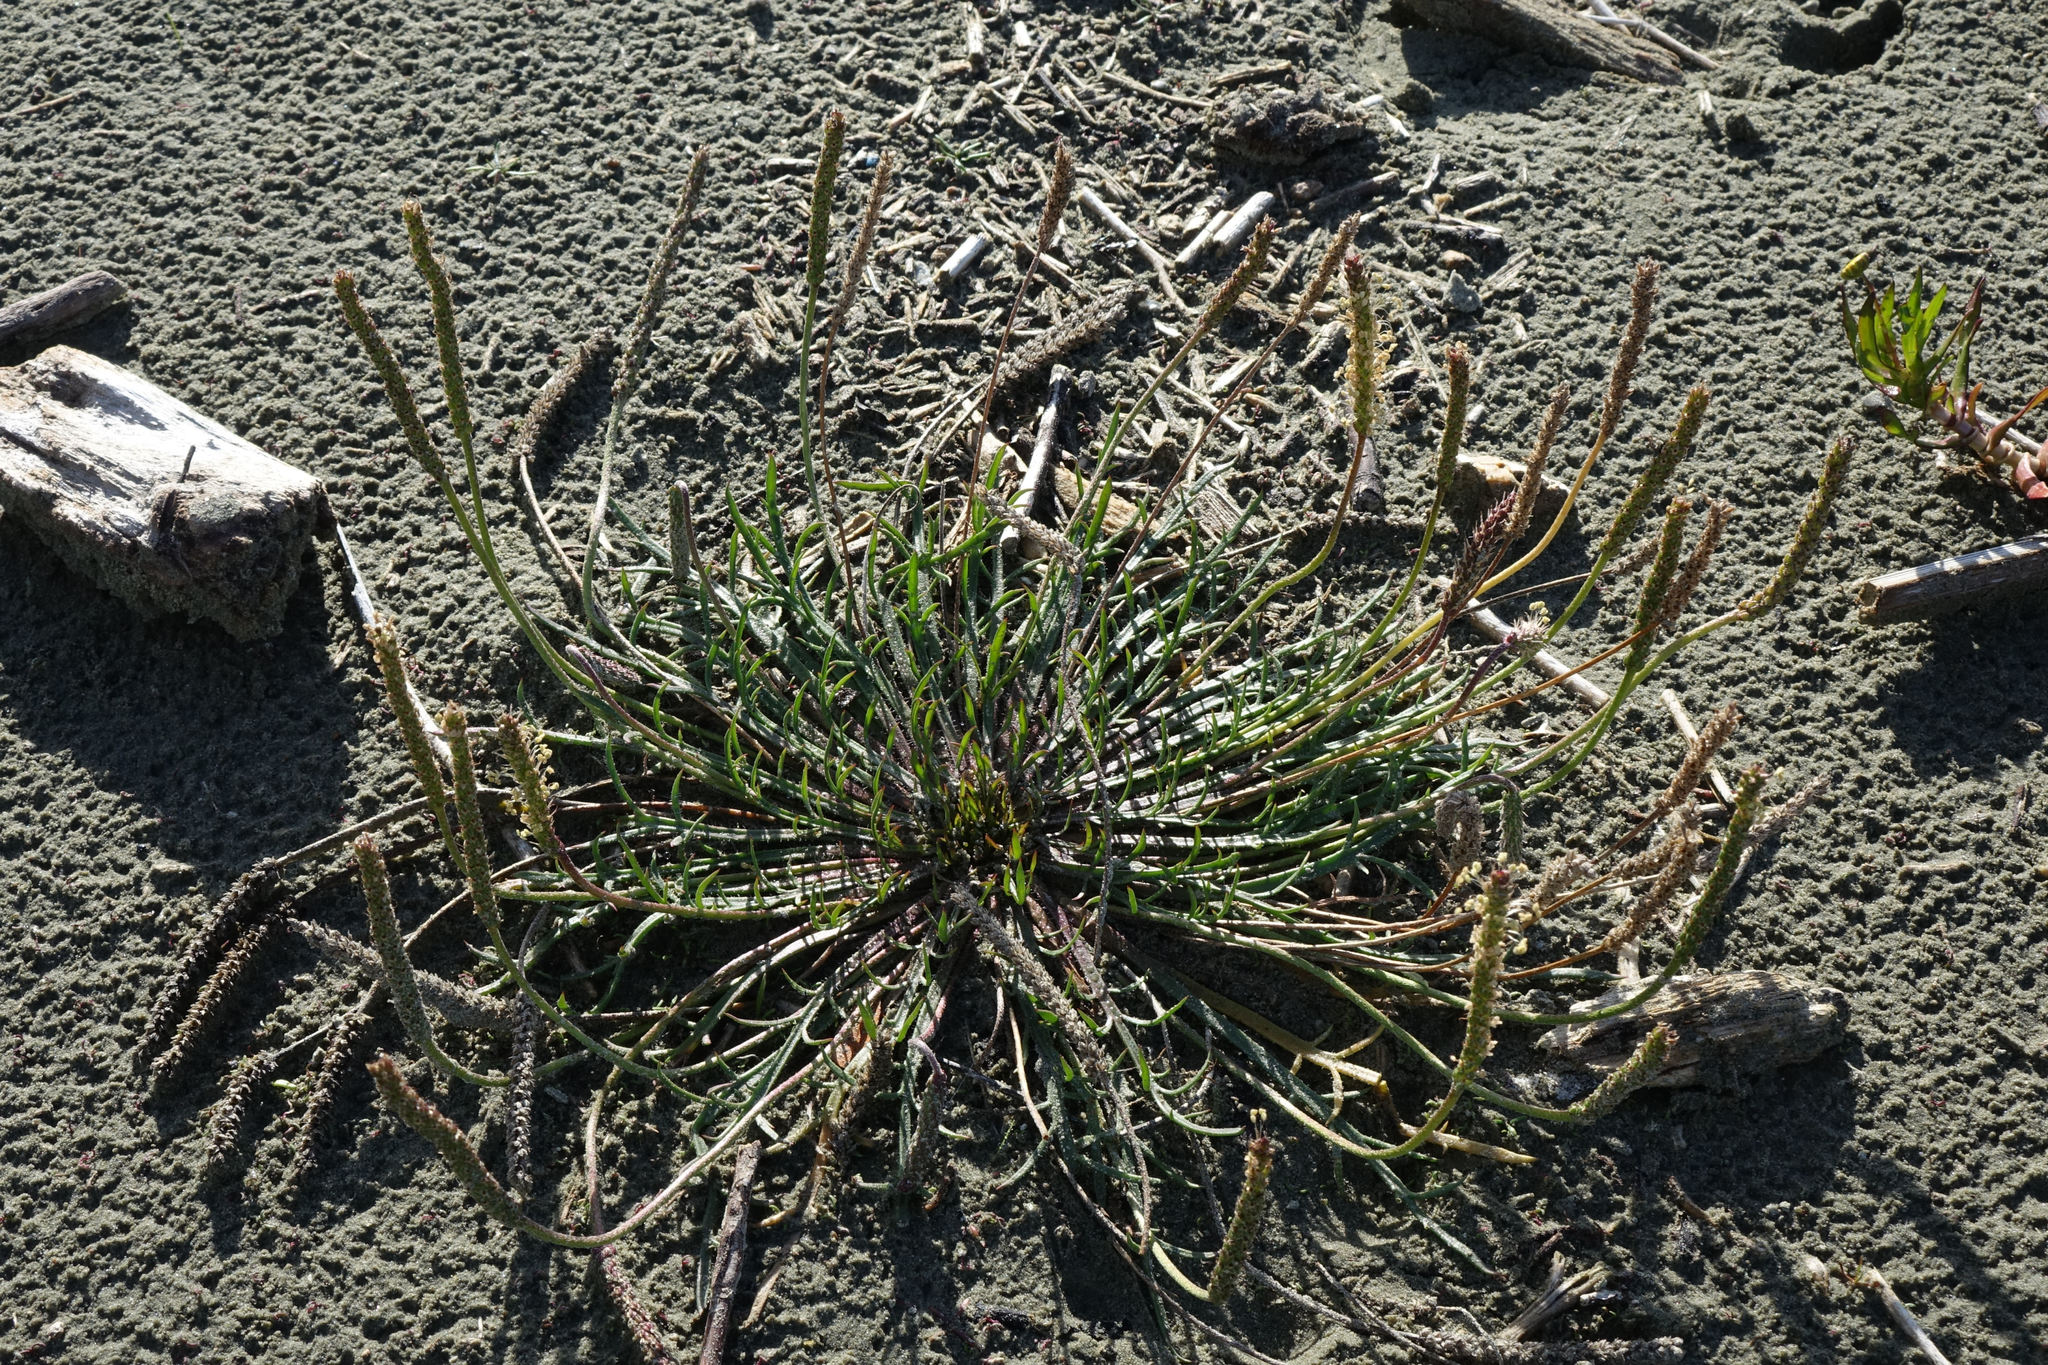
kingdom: Plantae
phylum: Tracheophyta
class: Magnoliopsida
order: Lamiales
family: Plantaginaceae
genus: Plantago
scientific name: Plantago coronopus
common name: Buck's-horn plantain
